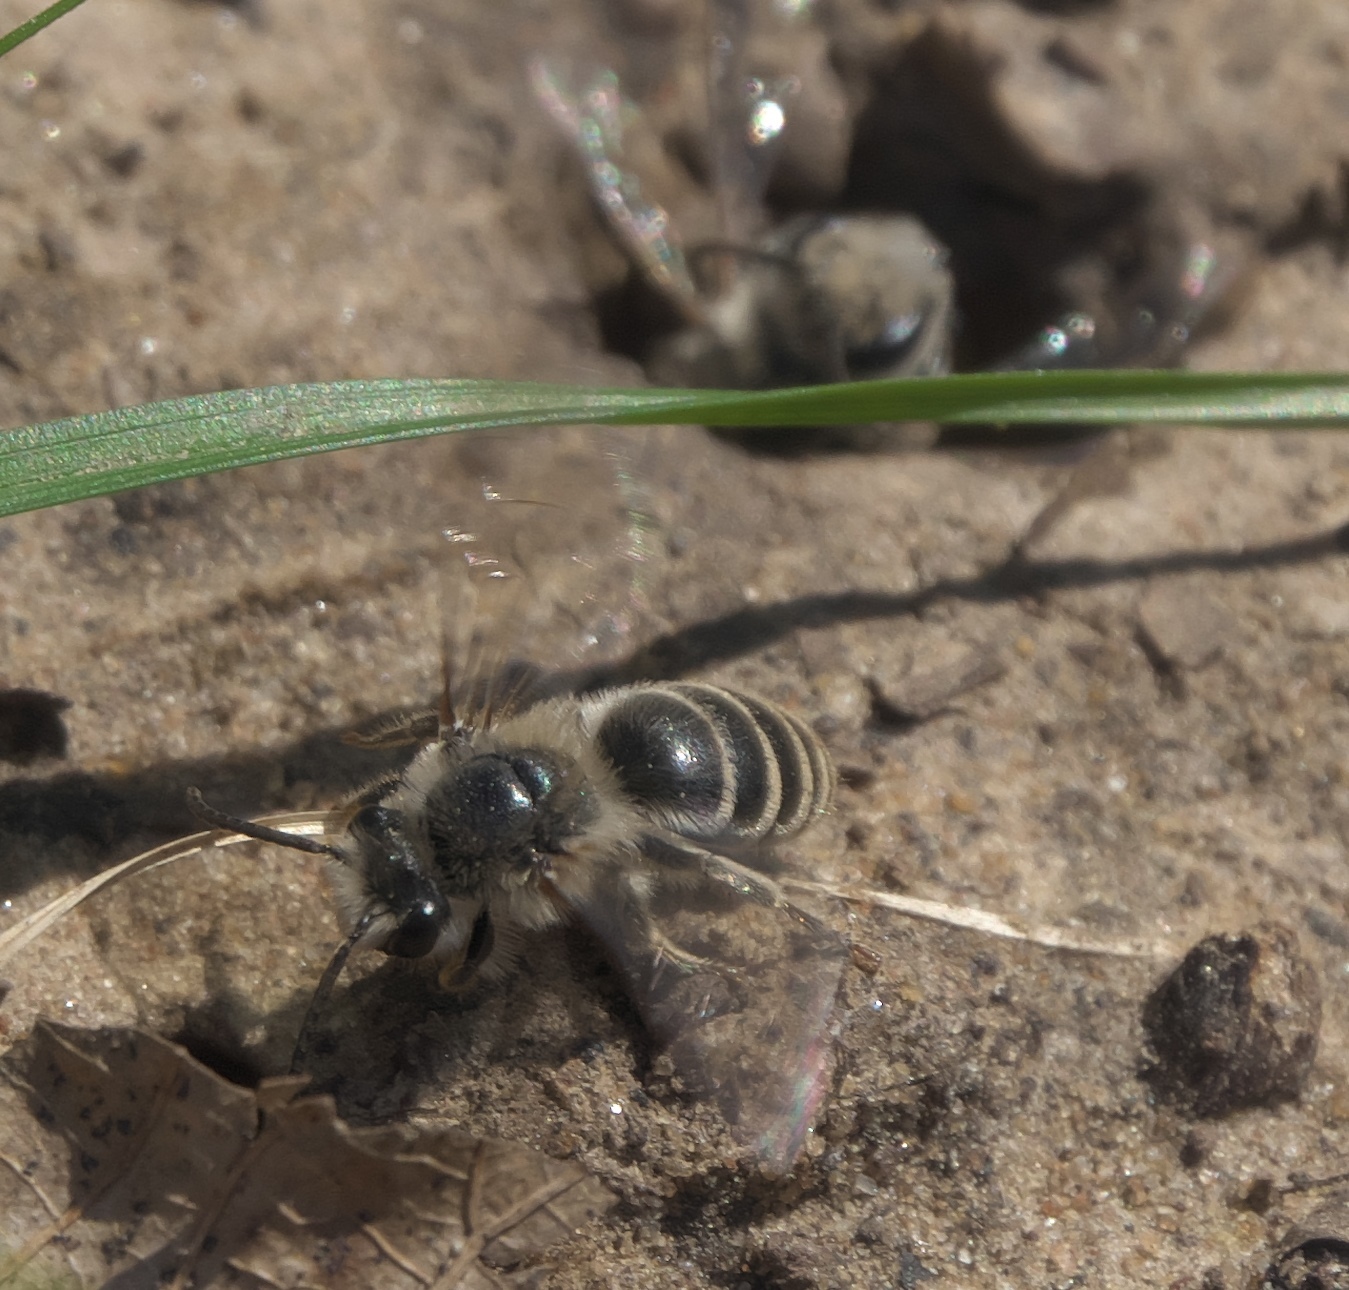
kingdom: Animalia
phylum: Arthropoda
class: Insecta
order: Hymenoptera
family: Colletidae
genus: Colletes
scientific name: Colletes inaequalis
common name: Unequal cellophane bee
